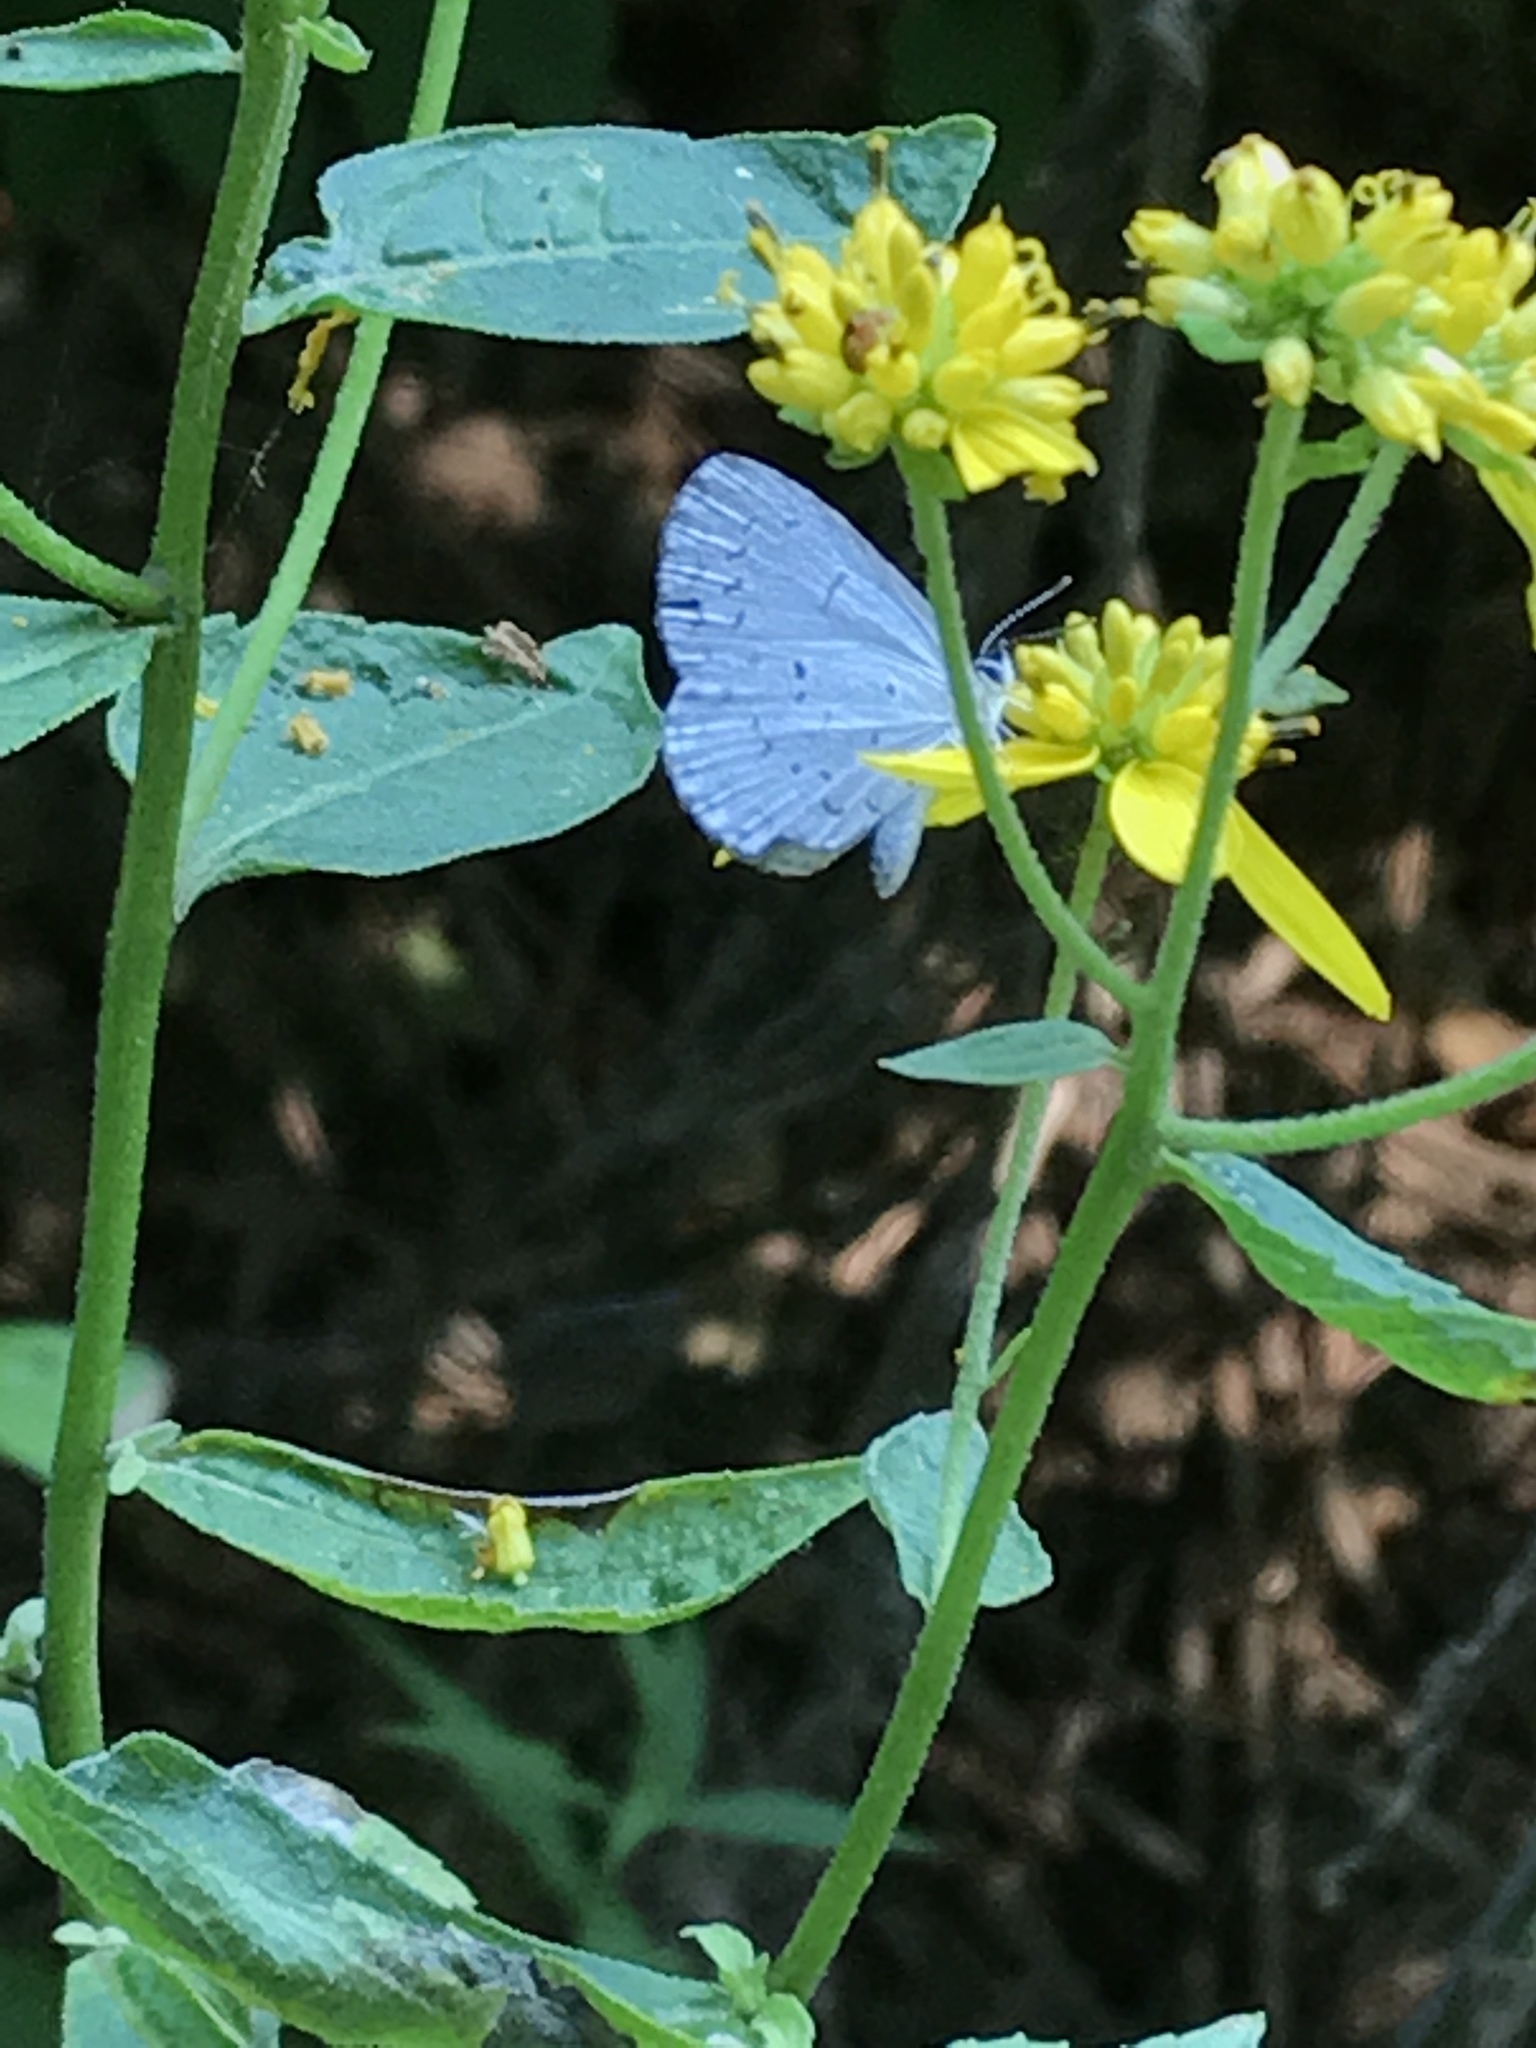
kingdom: Animalia
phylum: Arthropoda
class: Insecta
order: Lepidoptera
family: Lycaenidae
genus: Cyaniris
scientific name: Cyaniris neglecta
